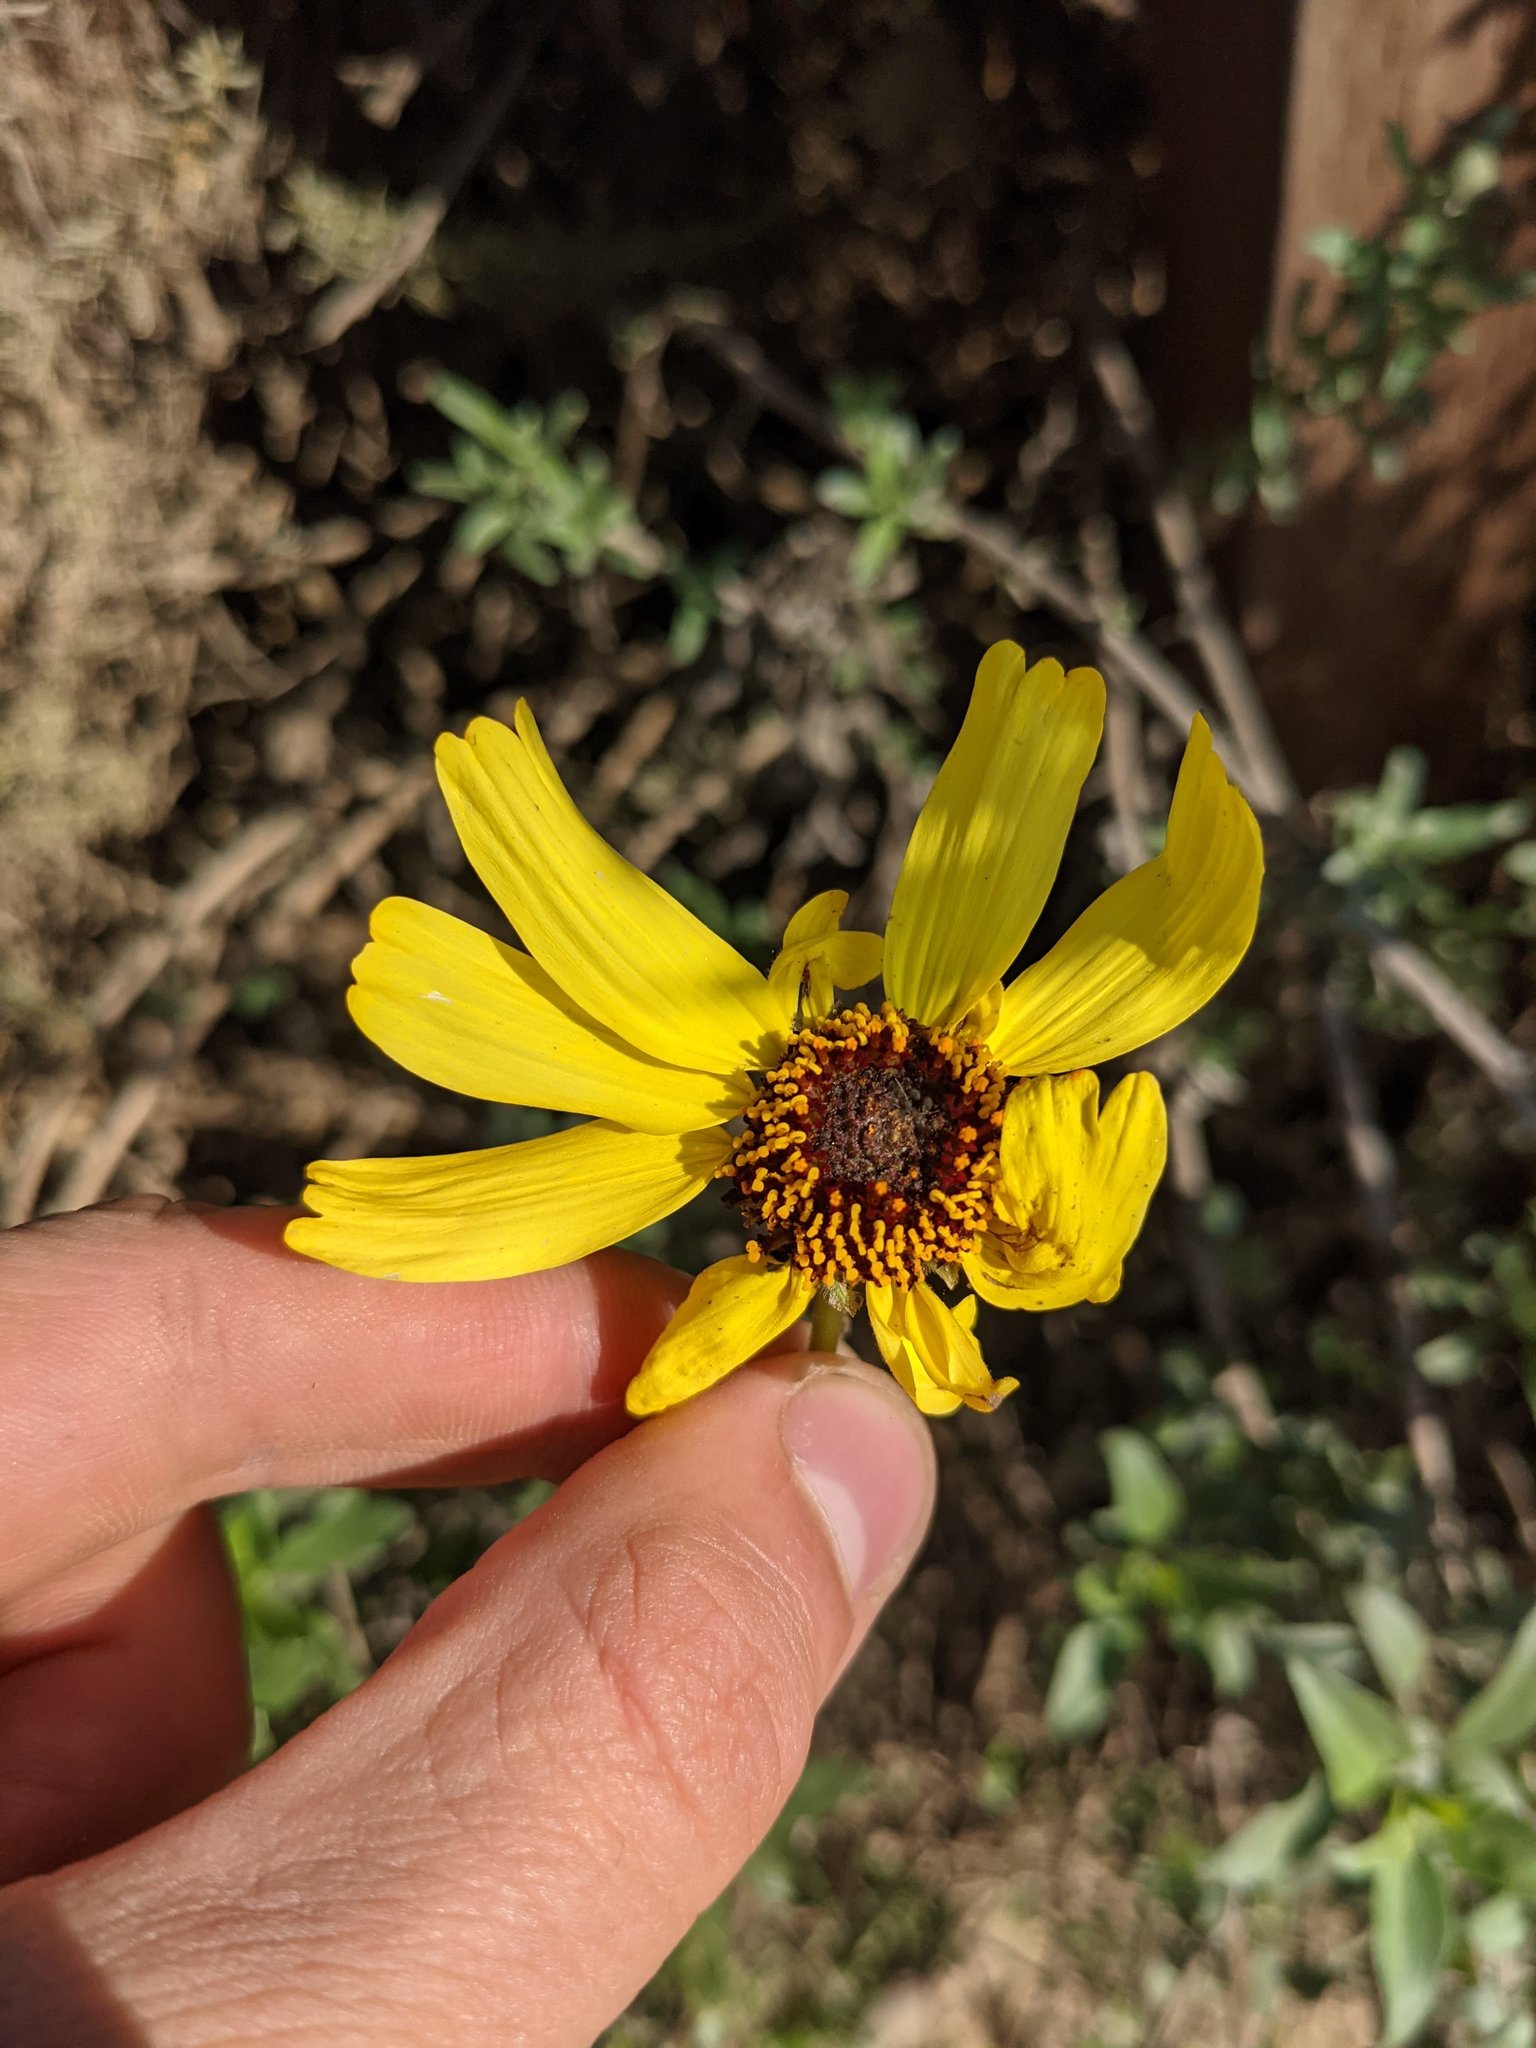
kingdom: Plantae
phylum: Tracheophyta
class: Magnoliopsida
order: Asterales
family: Asteraceae
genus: Encelia
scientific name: Encelia californica
